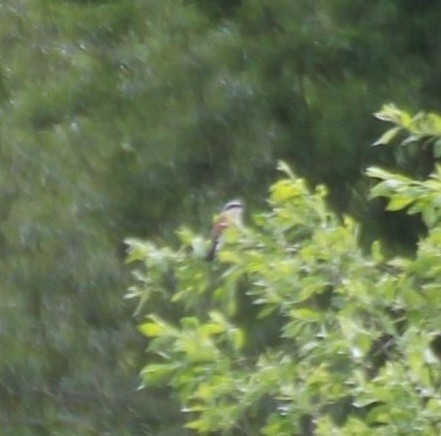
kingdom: Animalia
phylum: Chordata
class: Aves
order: Passeriformes
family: Laniidae
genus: Lanius
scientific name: Lanius collurio
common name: Red-backed shrike
